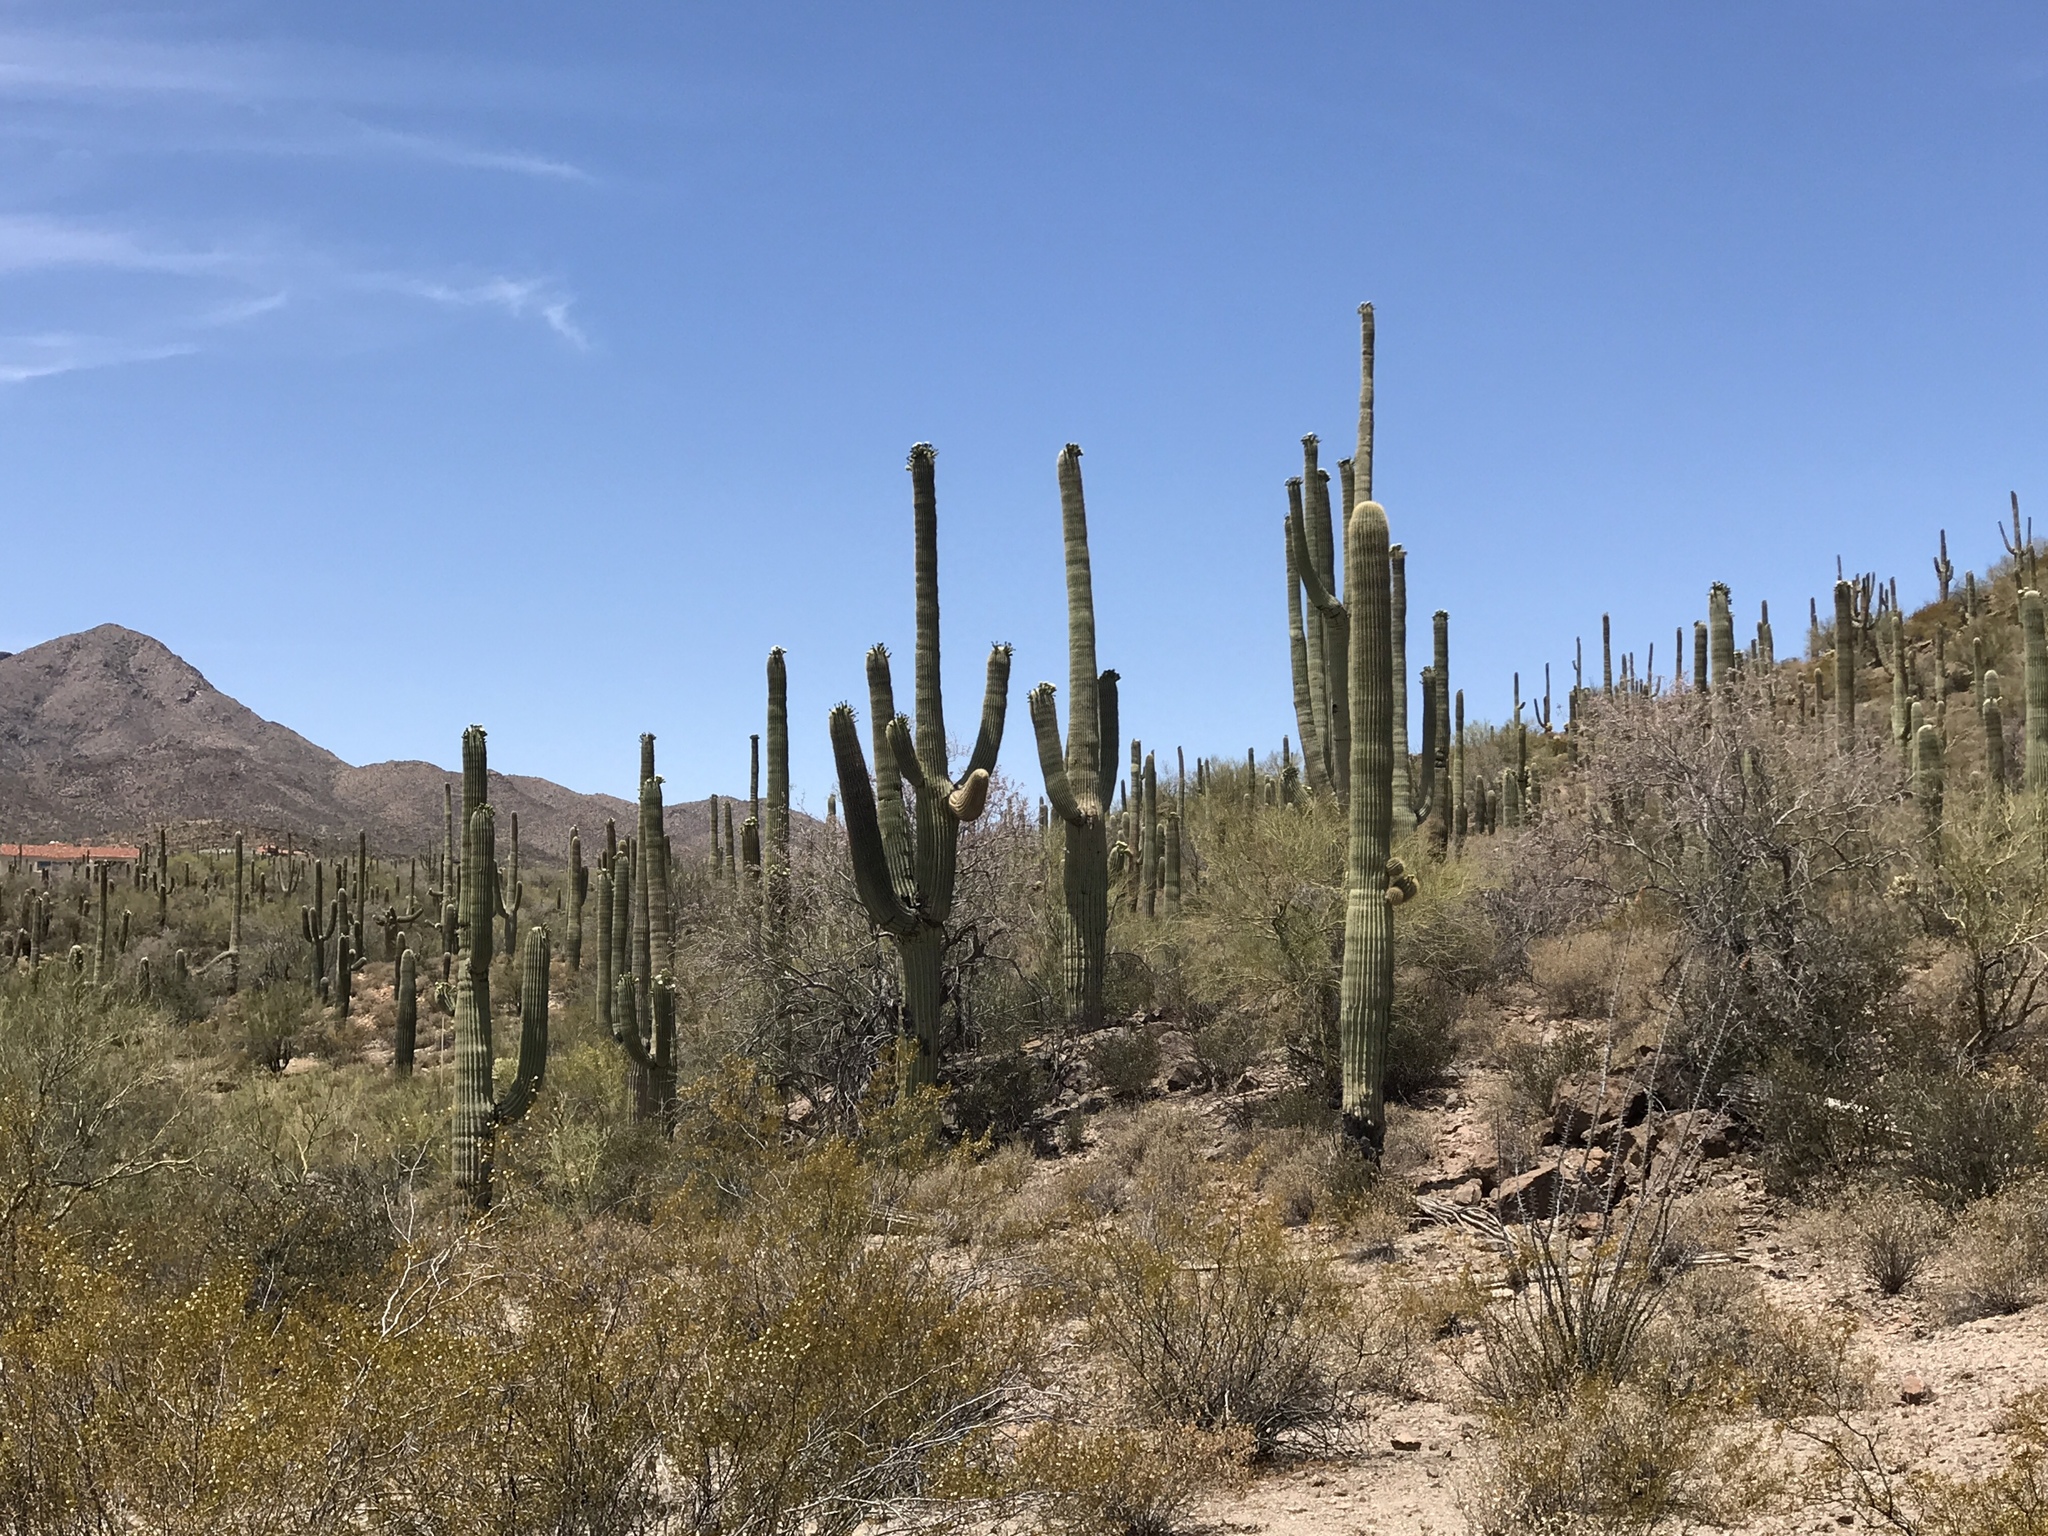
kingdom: Plantae
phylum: Tracheophyta
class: Magnoliopsida
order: Caryophyllales
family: Cactaceae
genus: Carnegiea
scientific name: Carnegiea gigantea
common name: Saguaro
